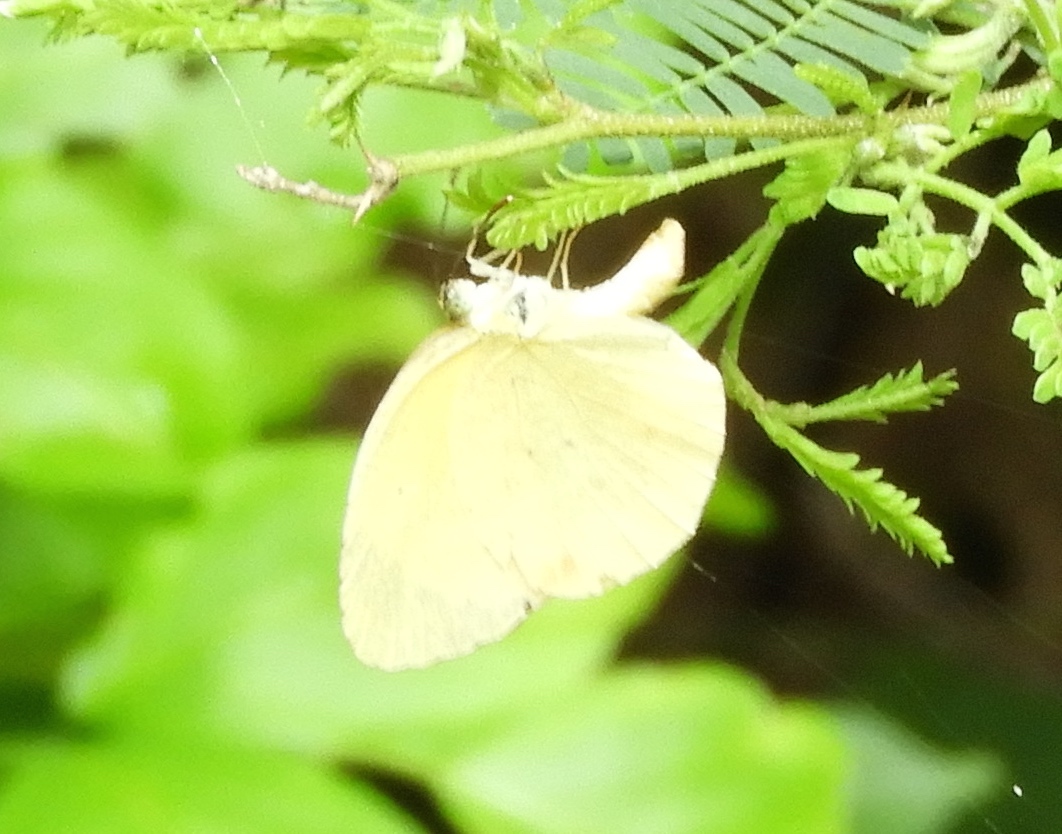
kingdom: Animalia
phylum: Arthropoda
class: Insecta
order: Lepidoptera
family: Pieridae
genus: Pyrisitia
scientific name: Pyrisitia
